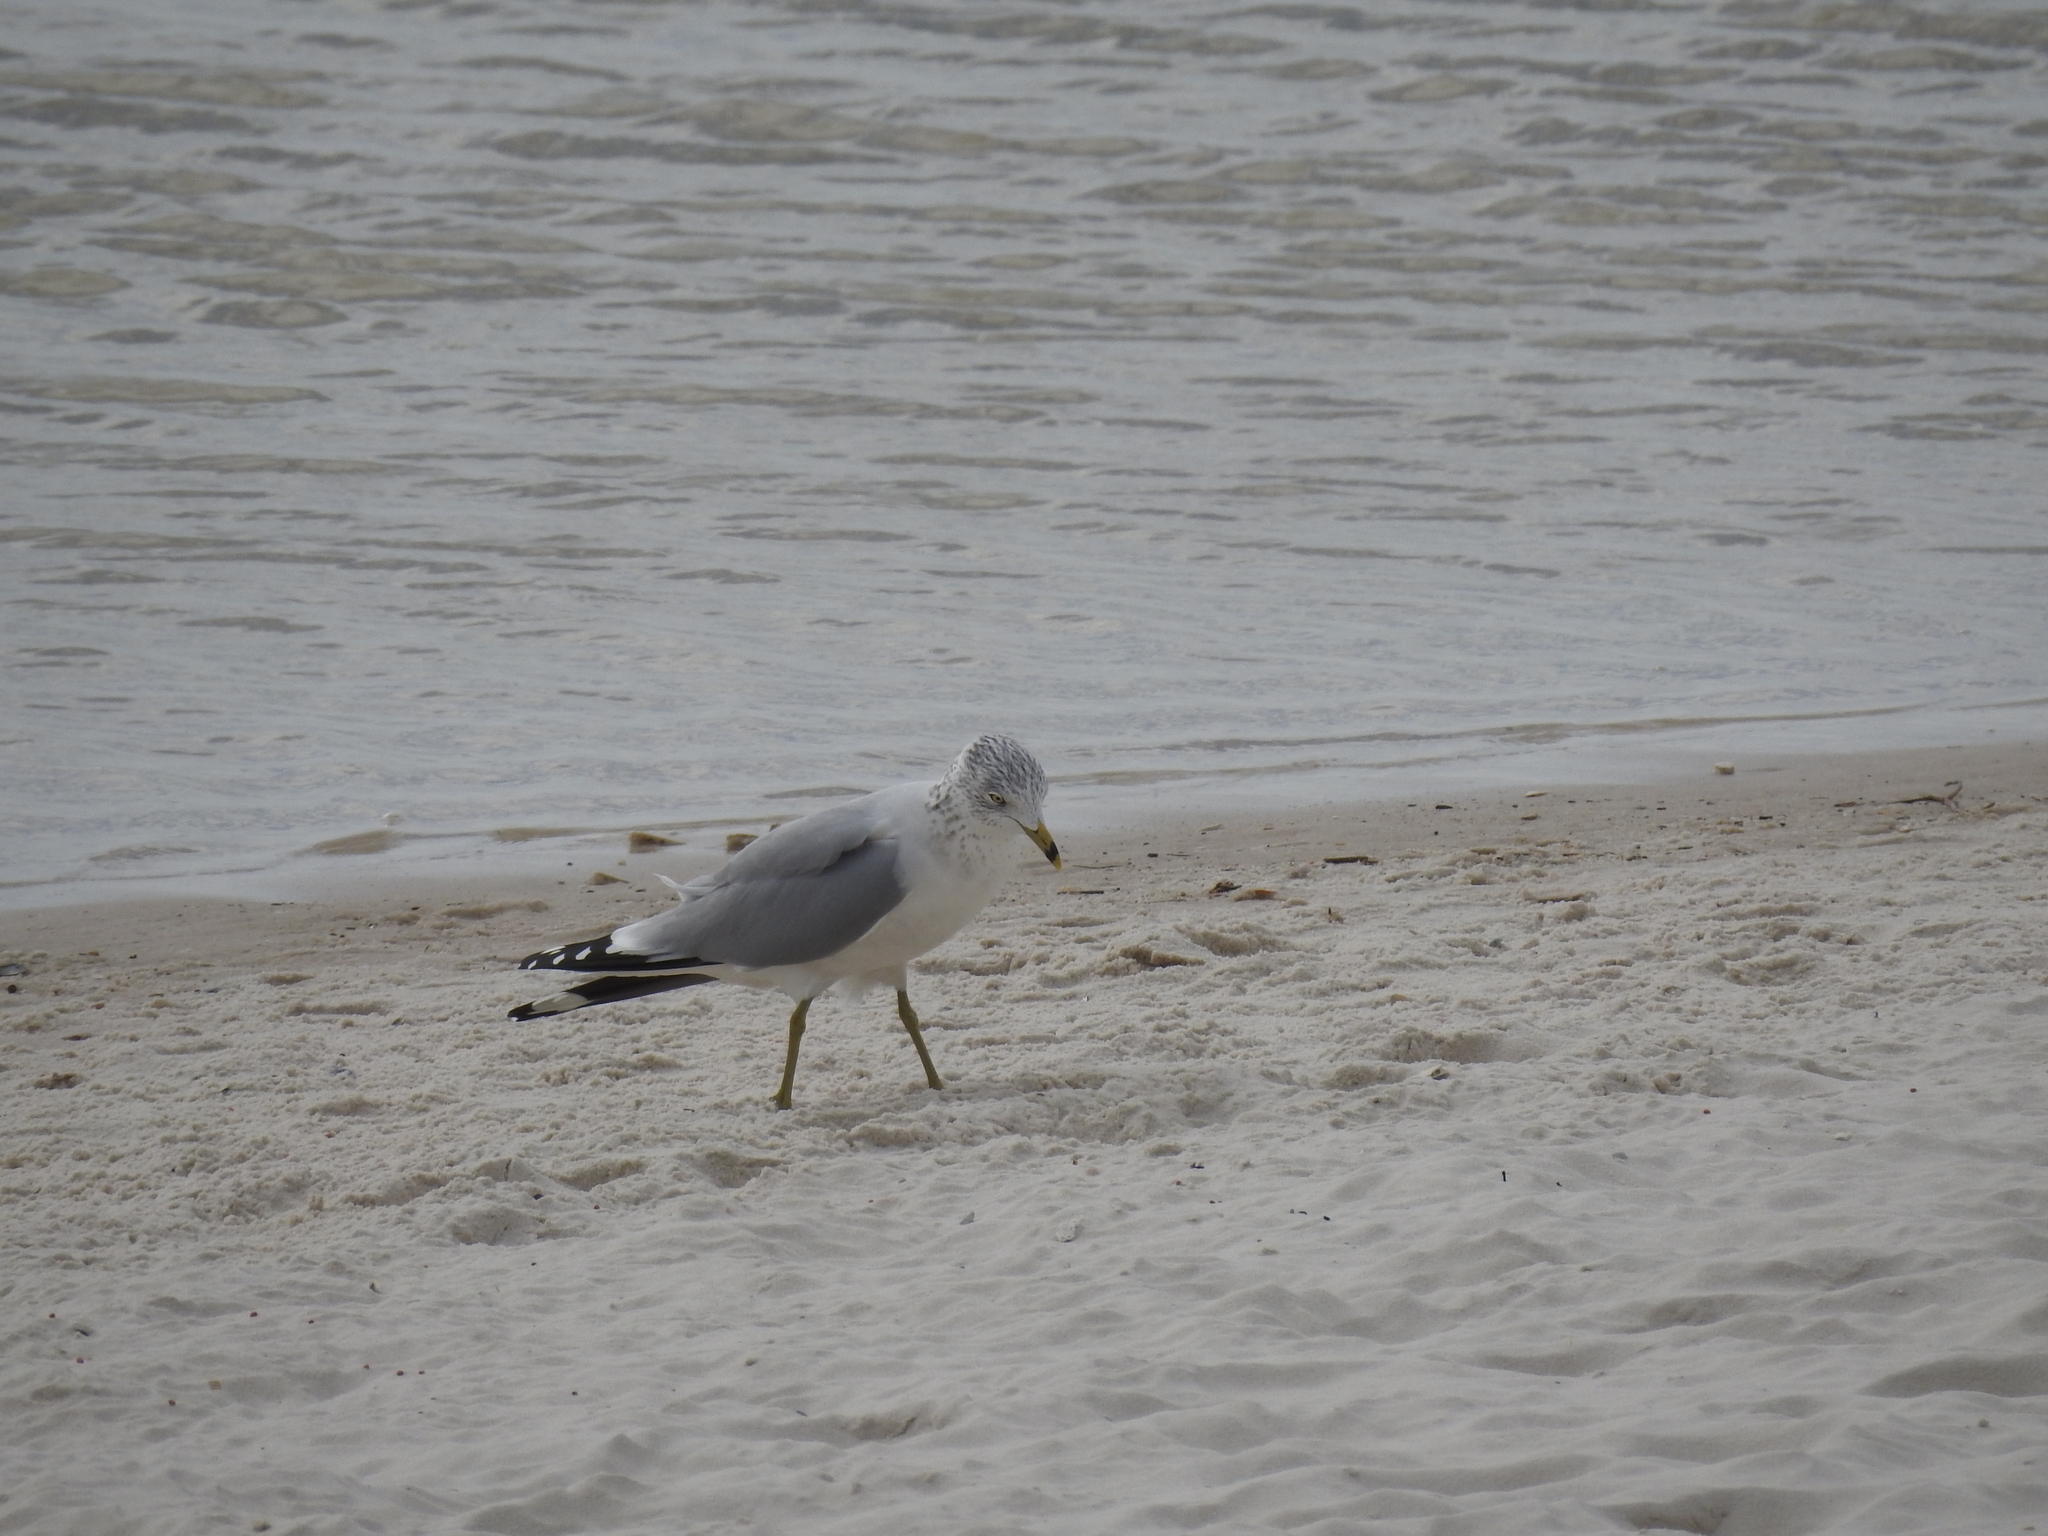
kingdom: Animalia
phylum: Chordata
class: Aves
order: Charadriiformes
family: Laridae
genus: Larus
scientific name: Larus delawarensis
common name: Ring-billed gull
